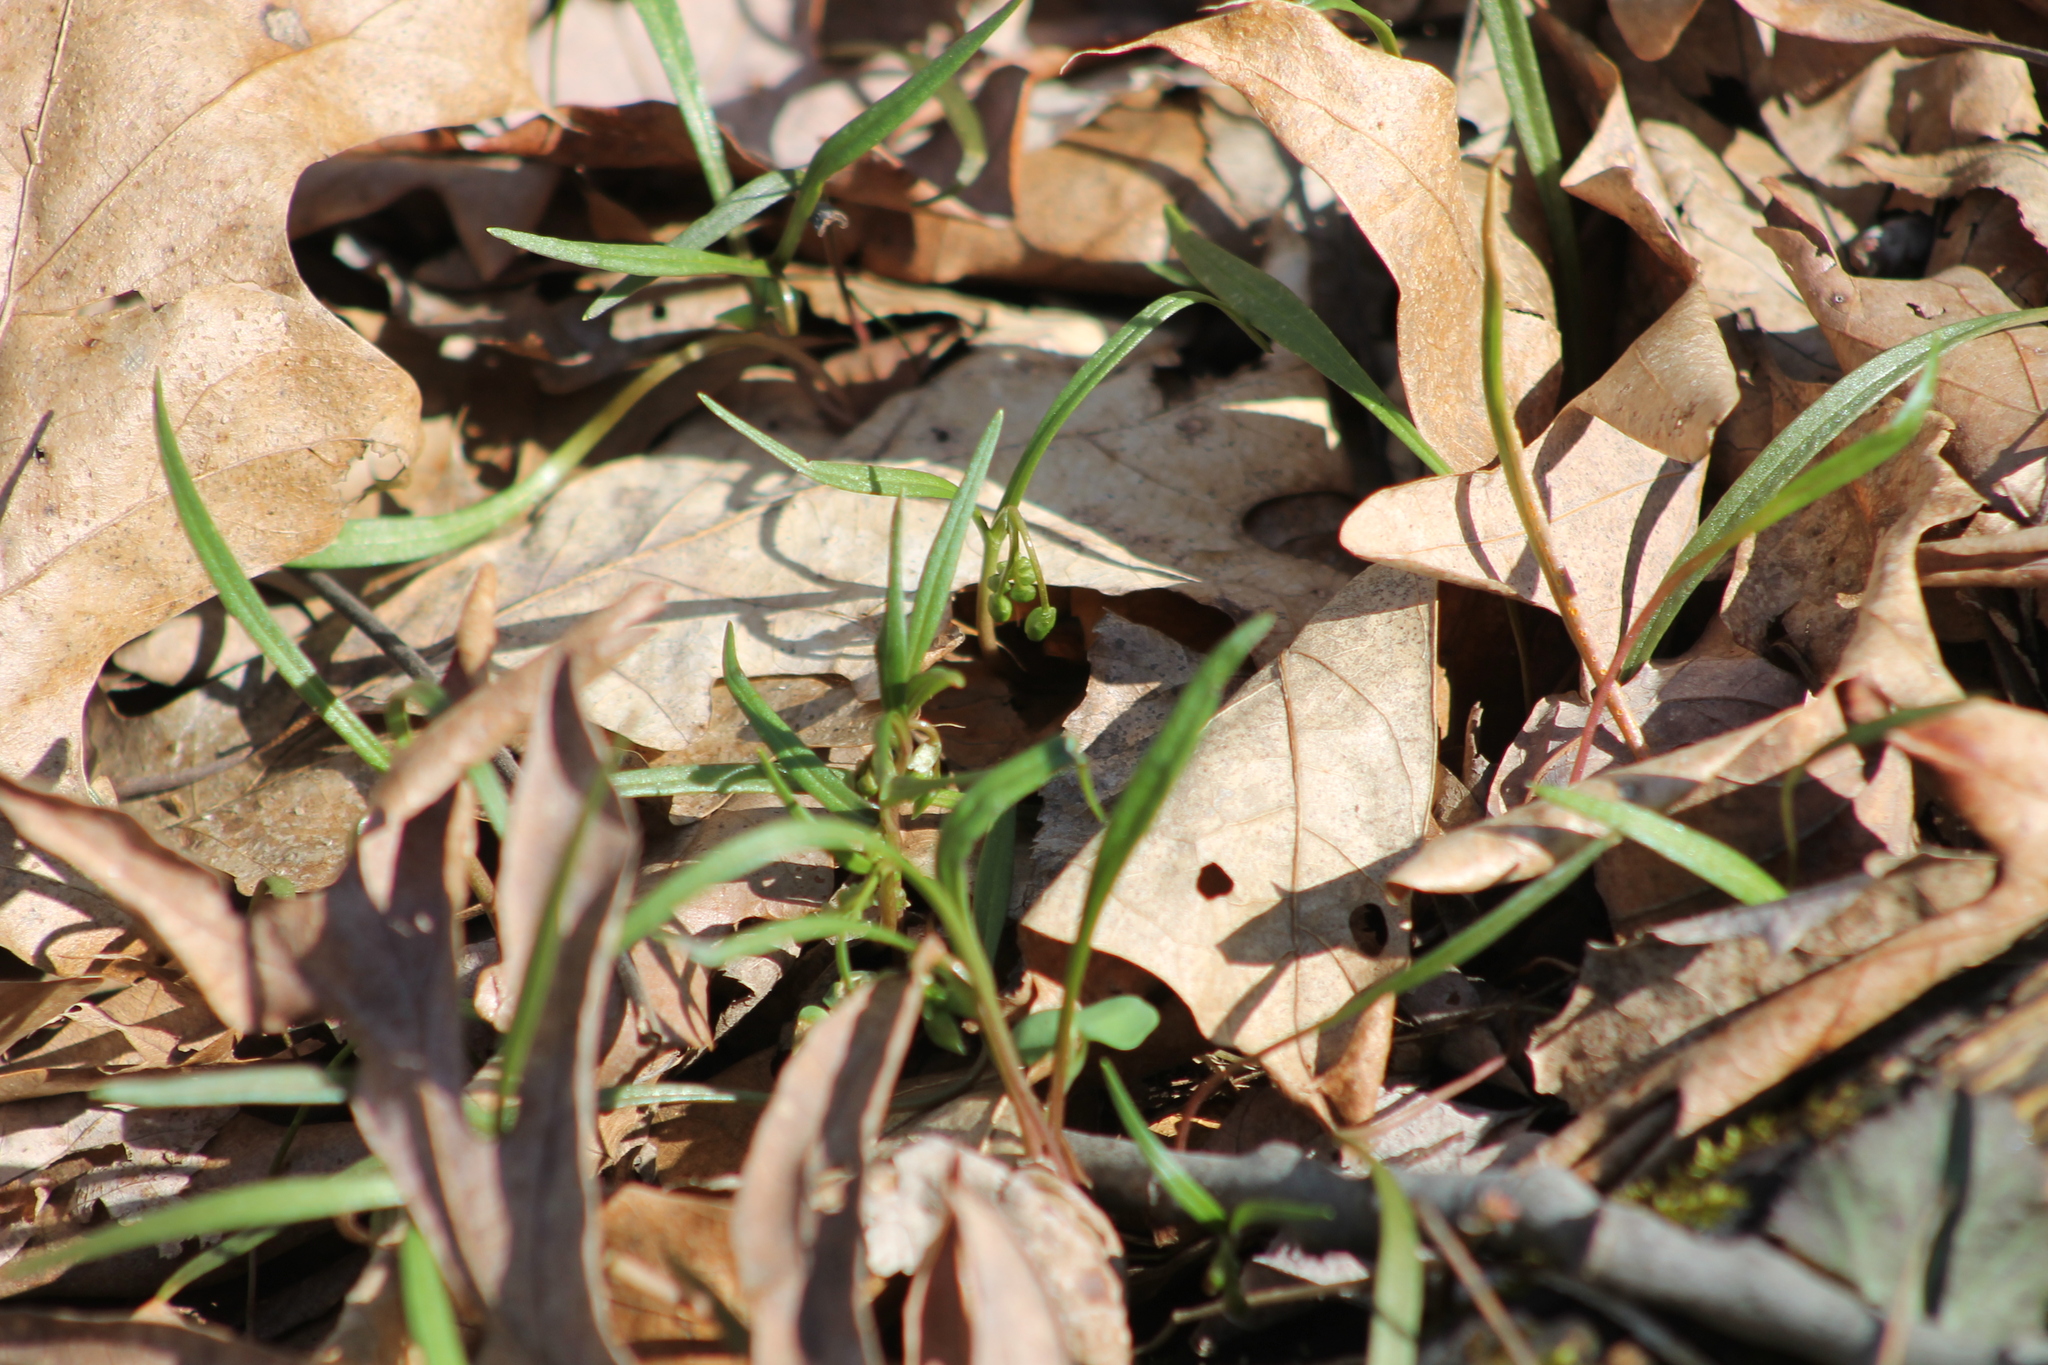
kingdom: Plantae
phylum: Tracheophyta
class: Magnoliopsida
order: Caryophyllales
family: Montiaceae
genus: Claytonia
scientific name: Claytonia virginica
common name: Virginia springbeauty
